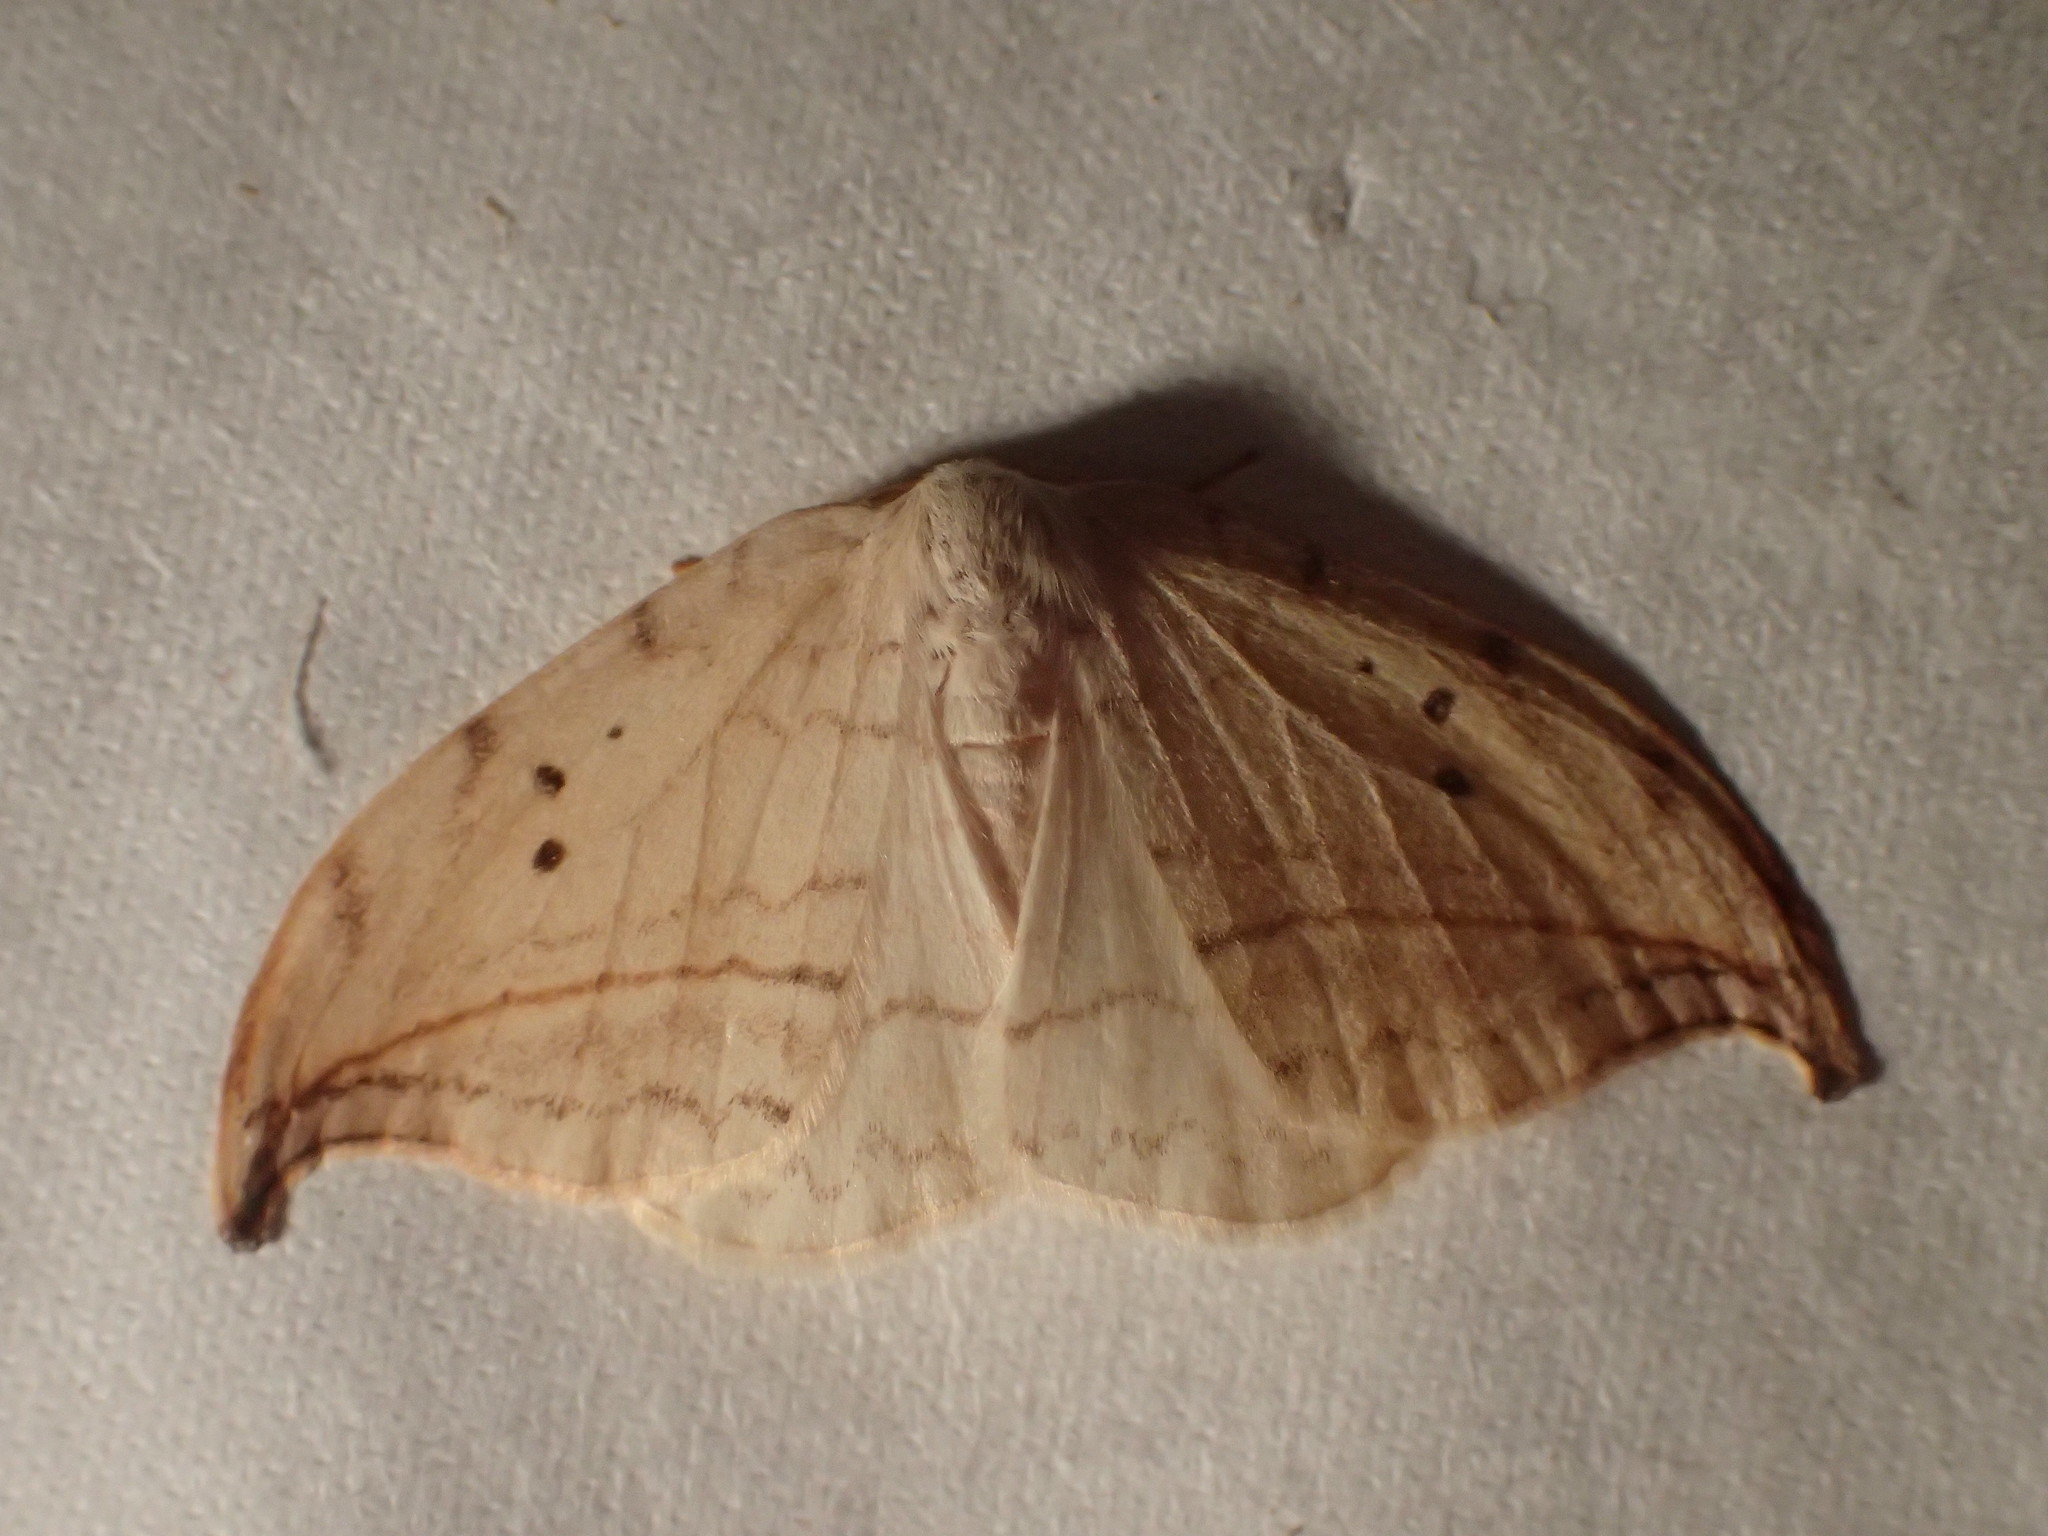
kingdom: Animalia
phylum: Arthropoda
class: Insecta
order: Lepidoptera
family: Drepanidae
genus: Drepana
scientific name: Drepana arcuata
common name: Arched hooktip moth
